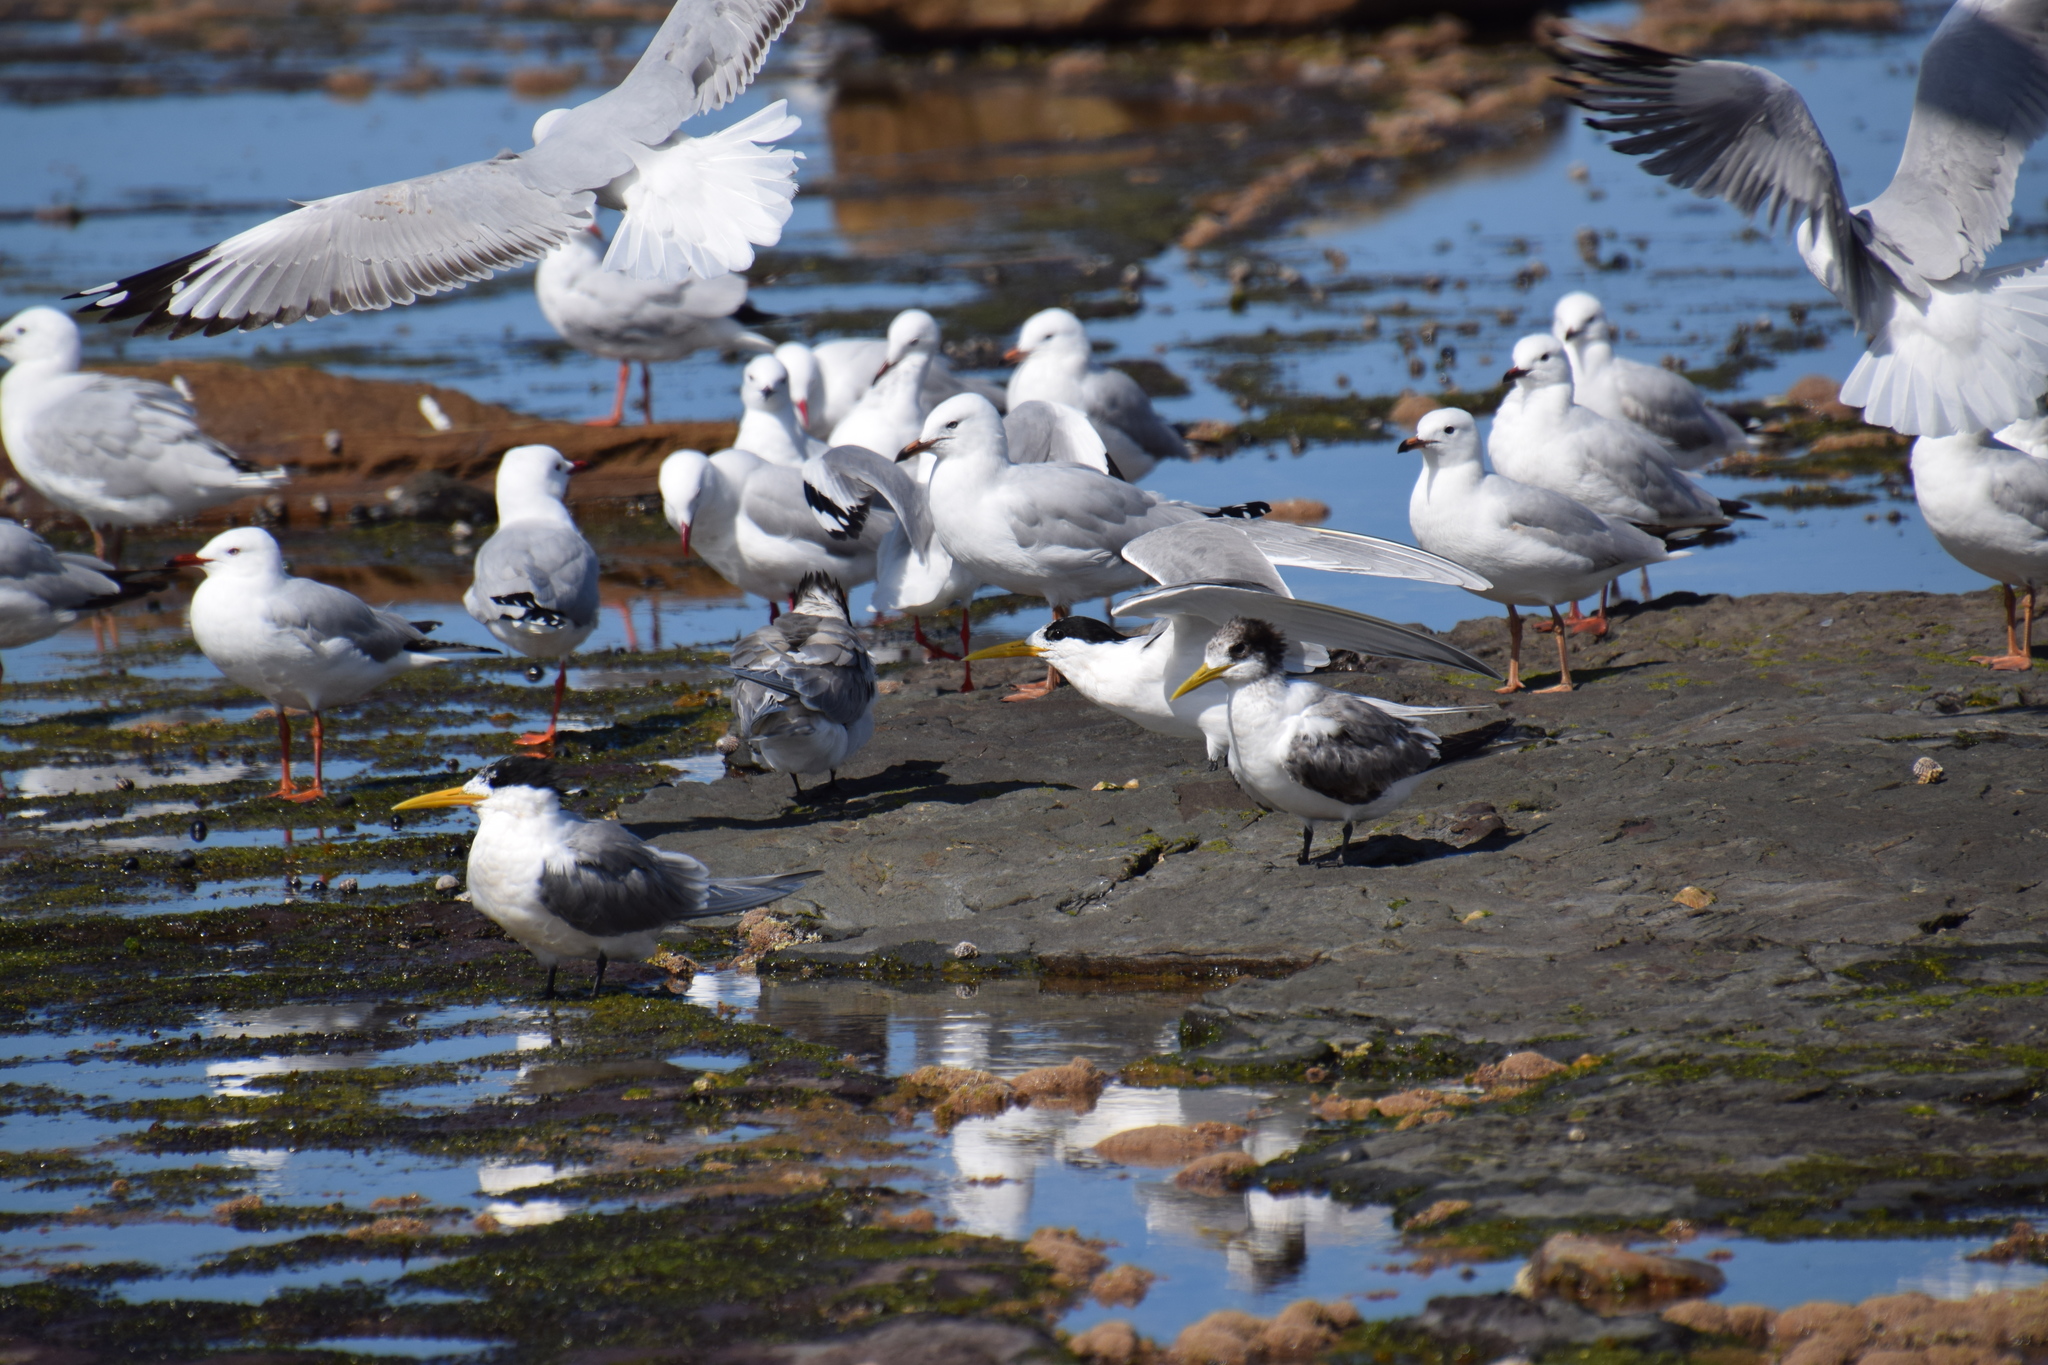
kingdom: Animalia
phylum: Chordata
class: Aves
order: Charadriiformes
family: Laridae
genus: Thalasseus
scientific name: Thalasseus bergii
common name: Greater crested tern
